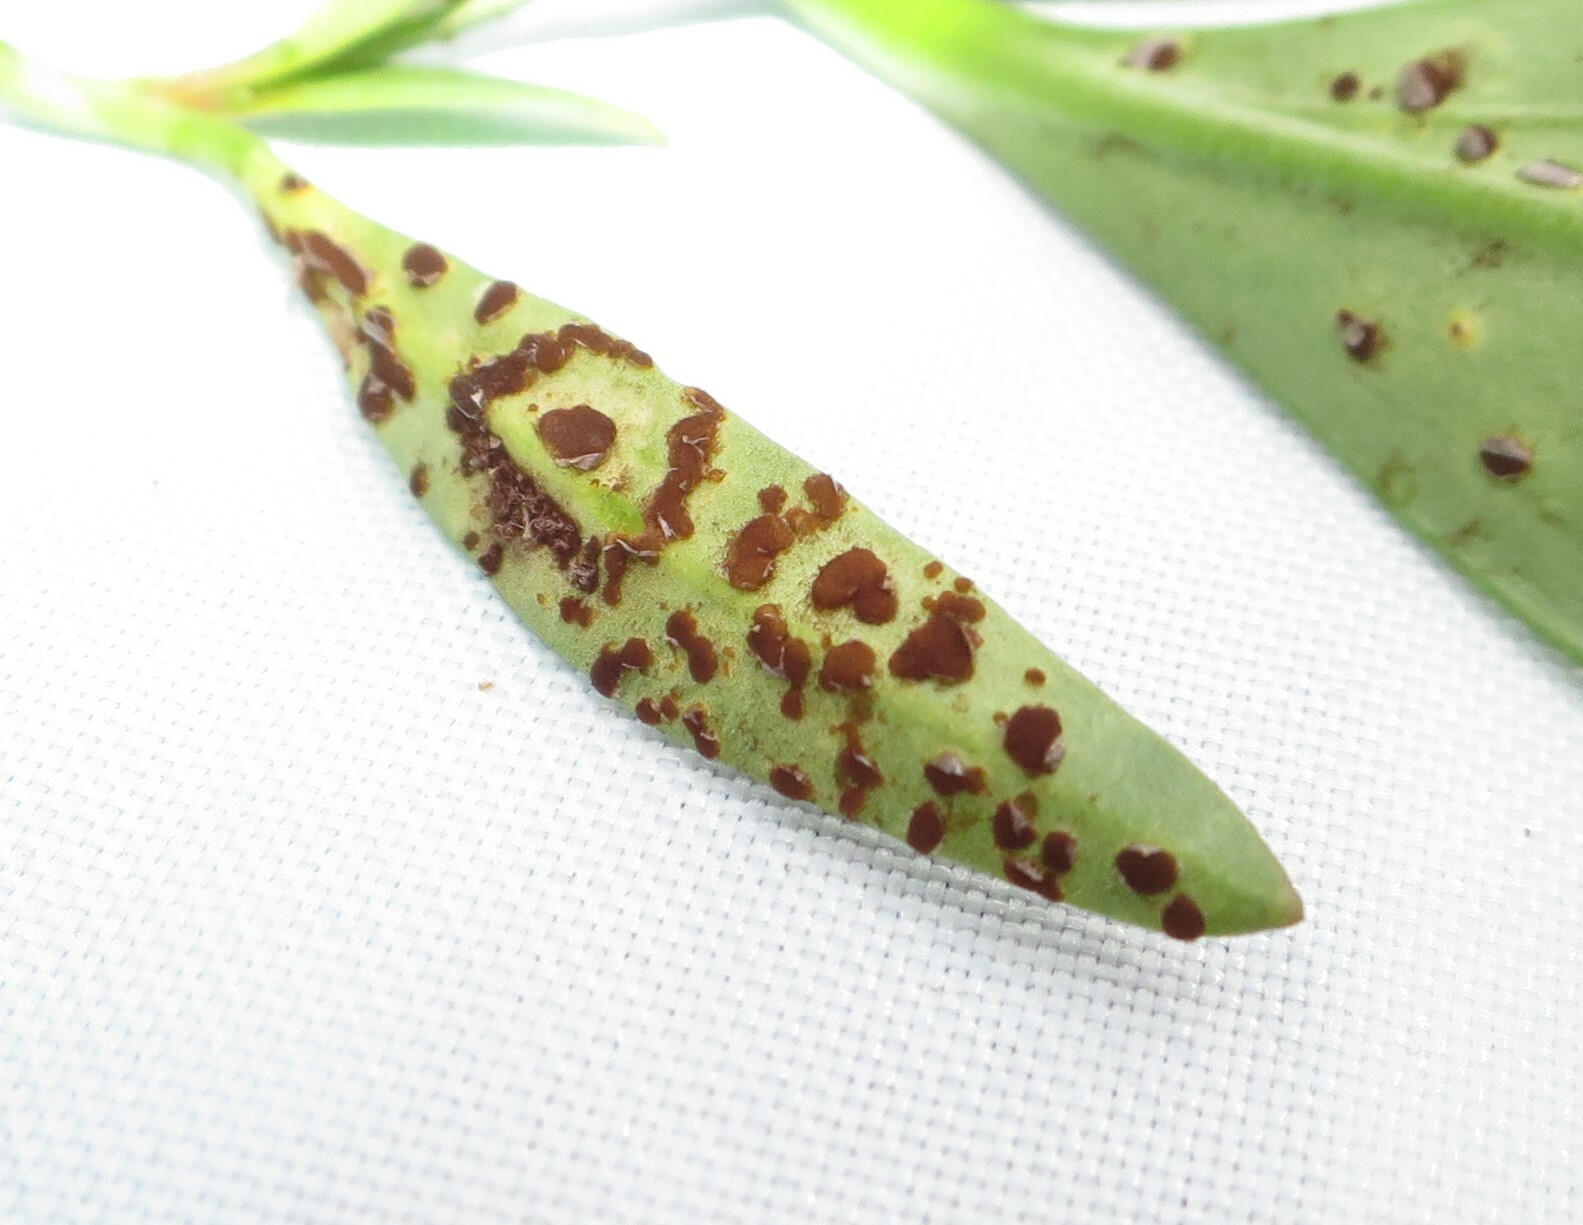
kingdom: Fungi
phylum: Basidiomycota
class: Pucciniomycetes
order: Pucciniales
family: Pucciniaceae
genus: Puccinia
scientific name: Puccinia antirrhini
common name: Antirrhinum rust
